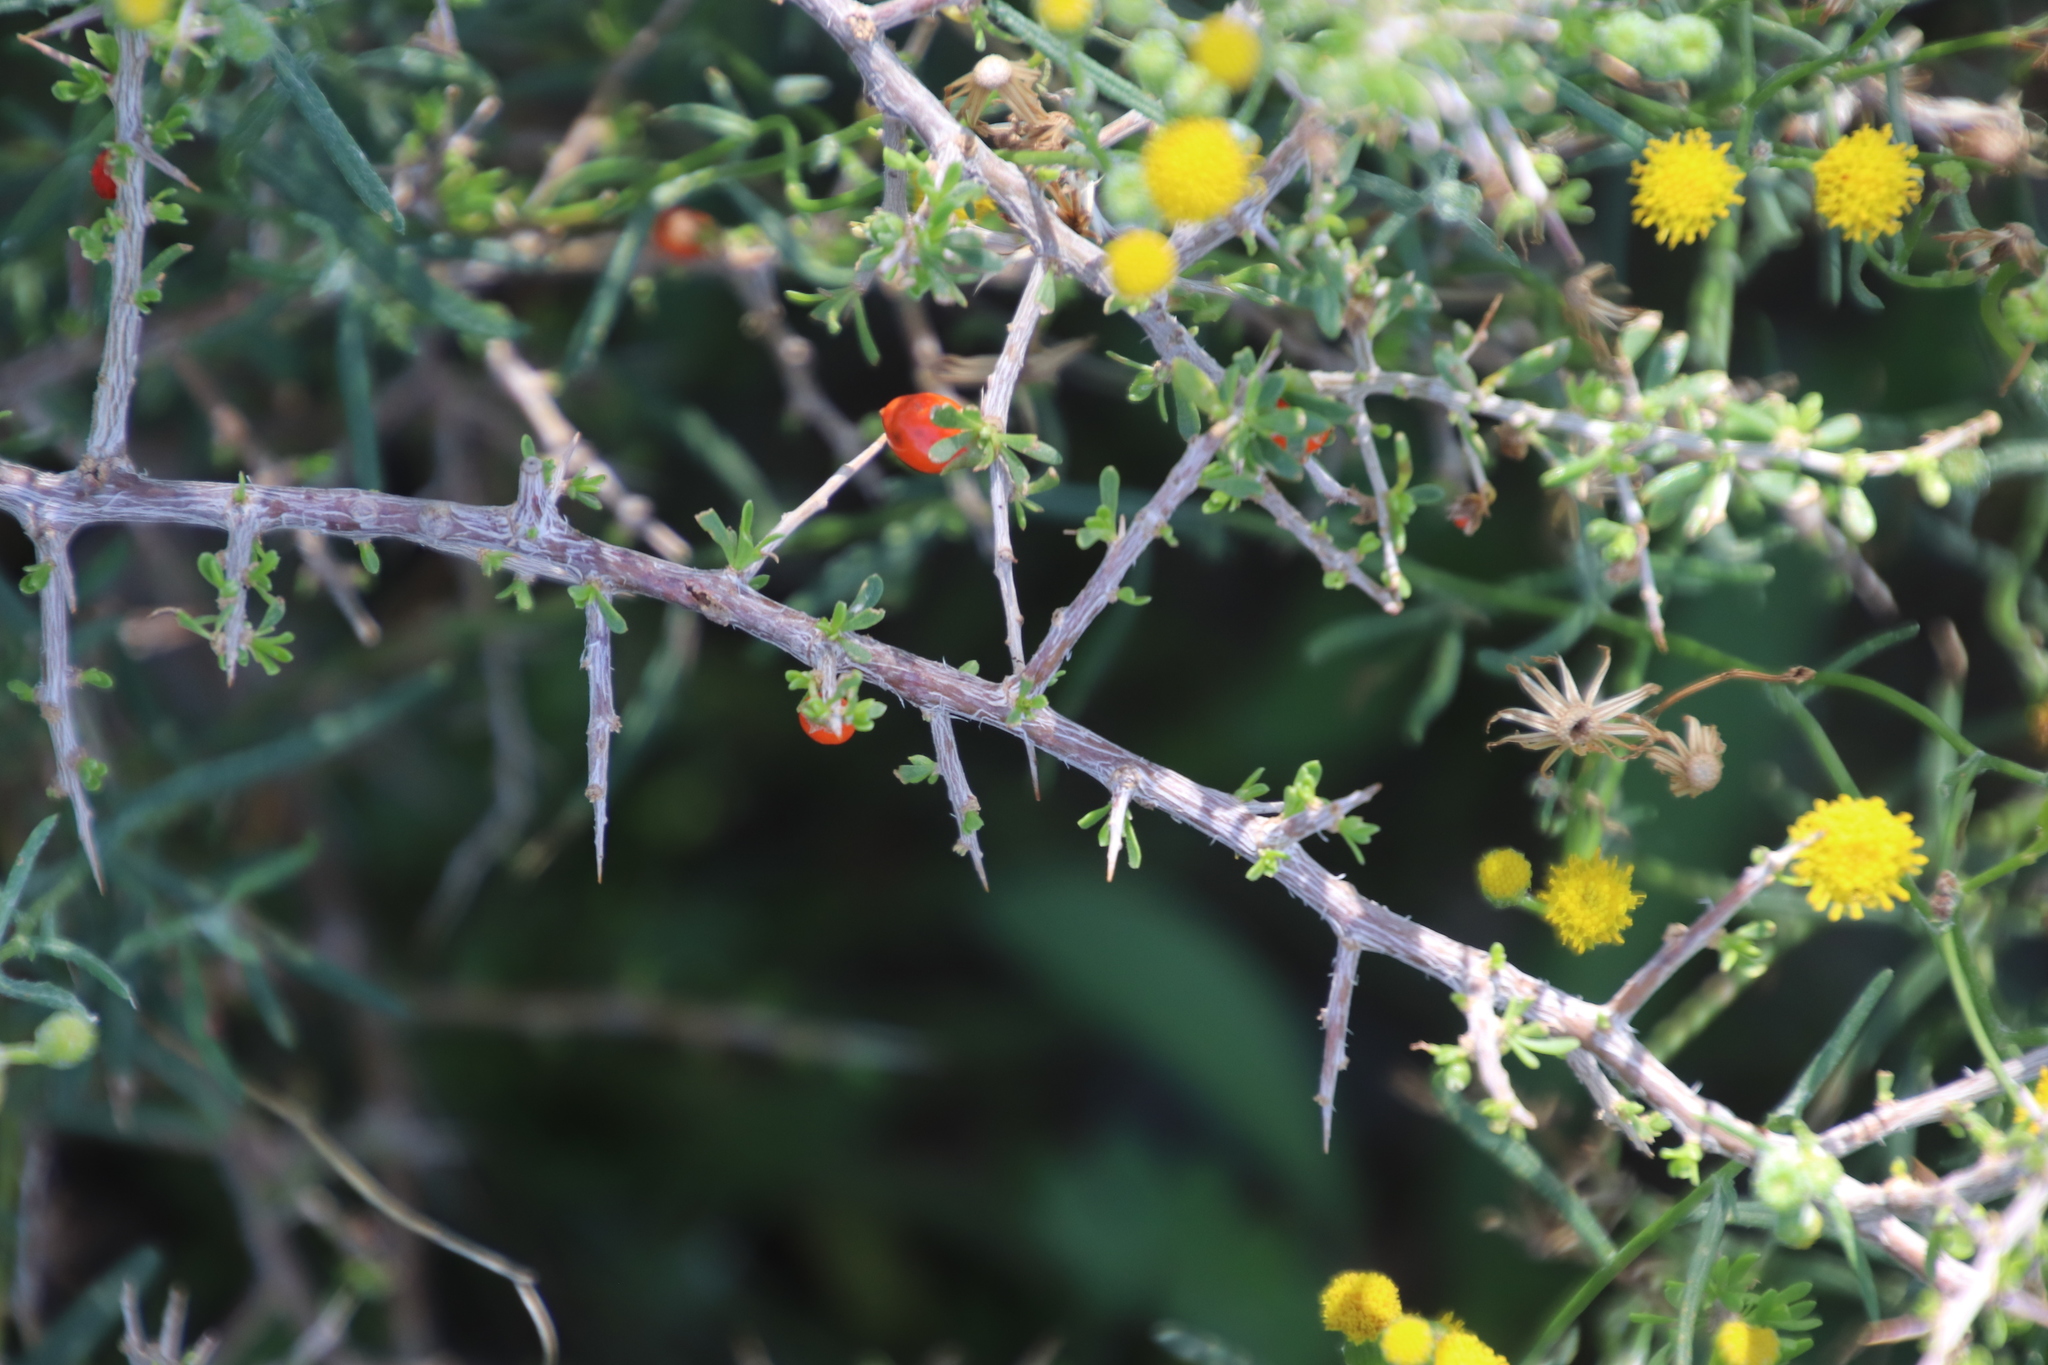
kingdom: Plantae
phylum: Tracheophyta
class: Magnoliopsida
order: Solanales
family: Solanaceae
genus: Lycium
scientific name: Lycium cinereum
